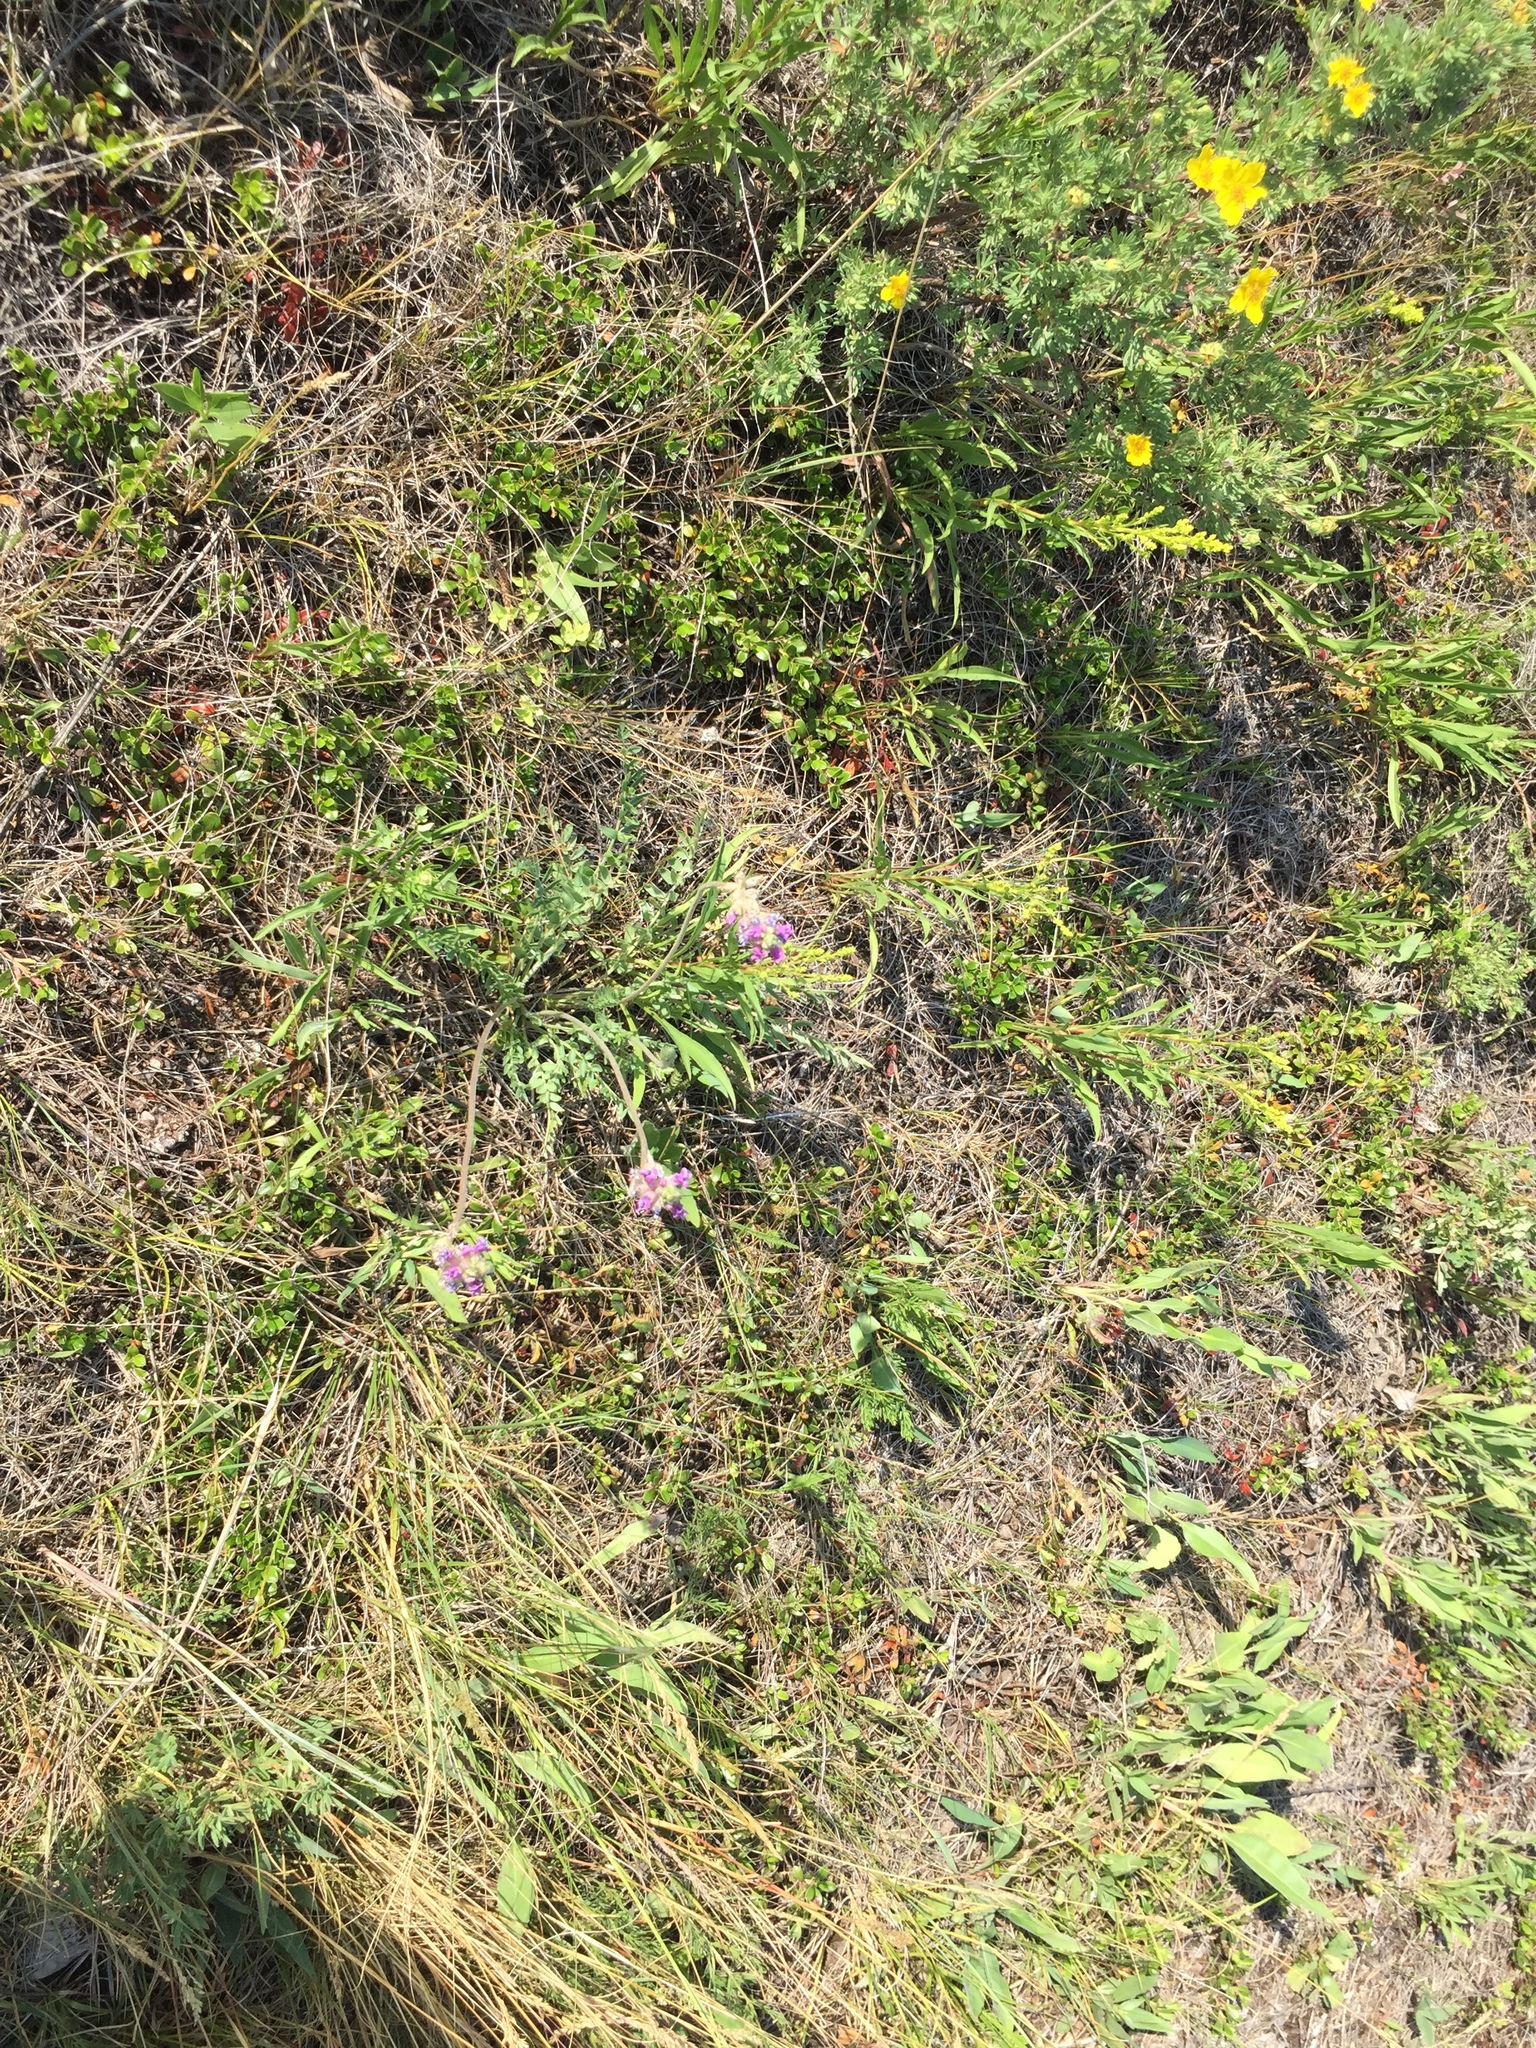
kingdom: Plantae
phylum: Tracheophyta
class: Magnoliopsida
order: Fabales
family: Fabaceae
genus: Oxytropis
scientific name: Oxytropis campestris
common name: Field locoweed
